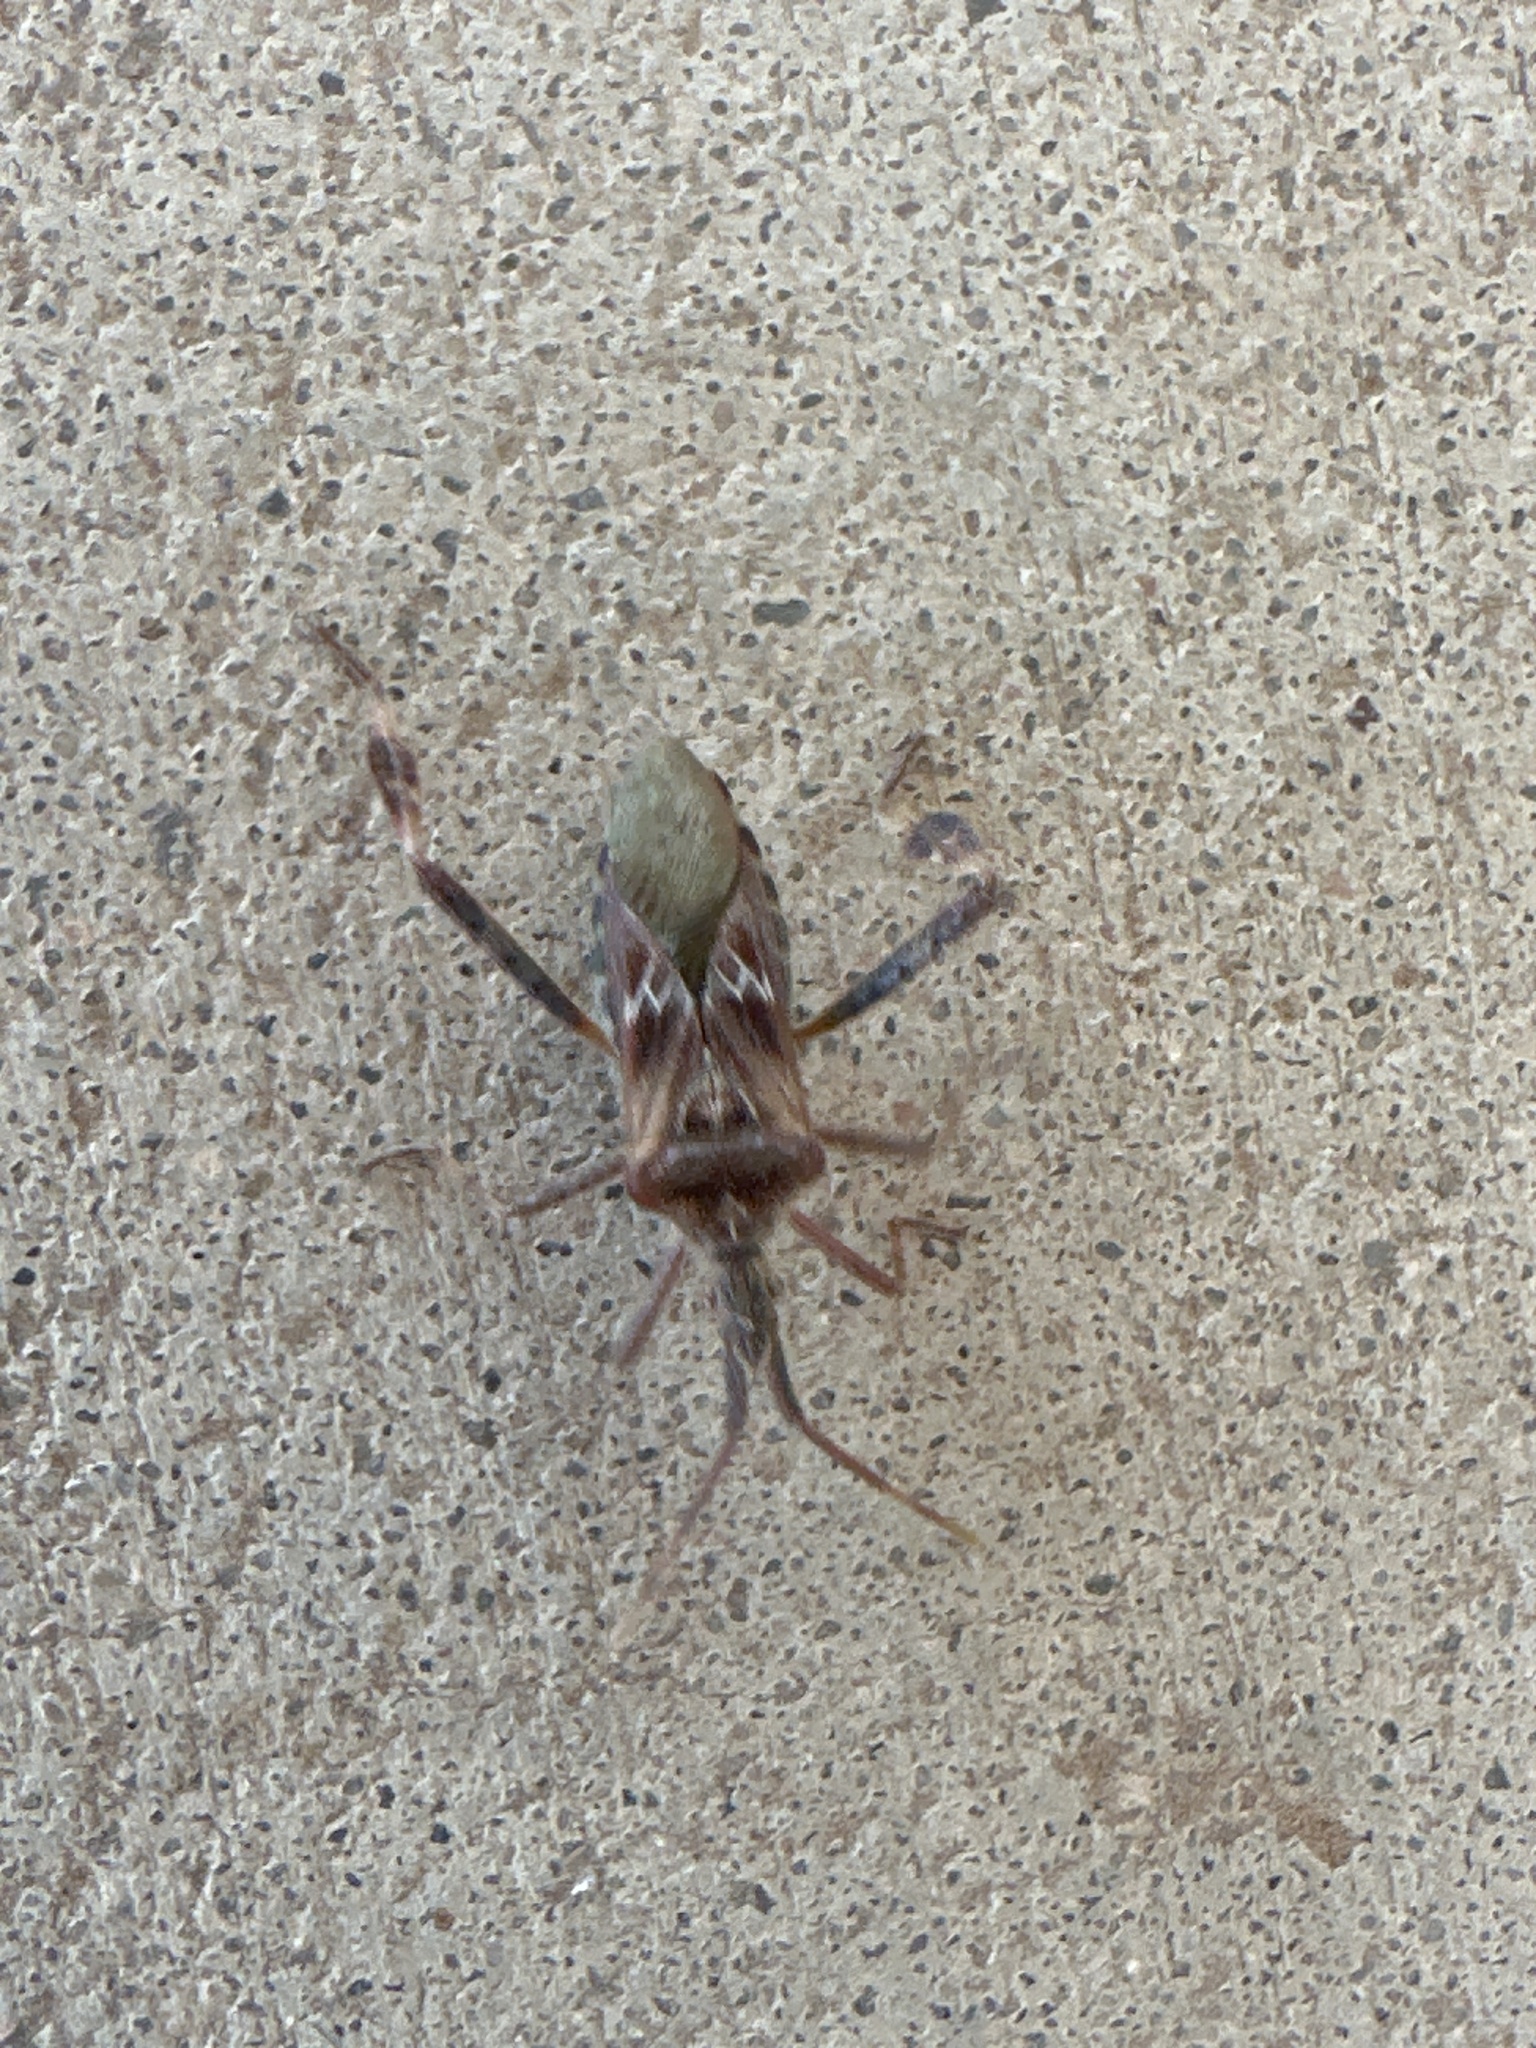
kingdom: Animalia
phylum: Arthropoda
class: Insecta
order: Hemiptera
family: Coreidae
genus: Leptoglossus
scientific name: Leptoglossus clypealis
